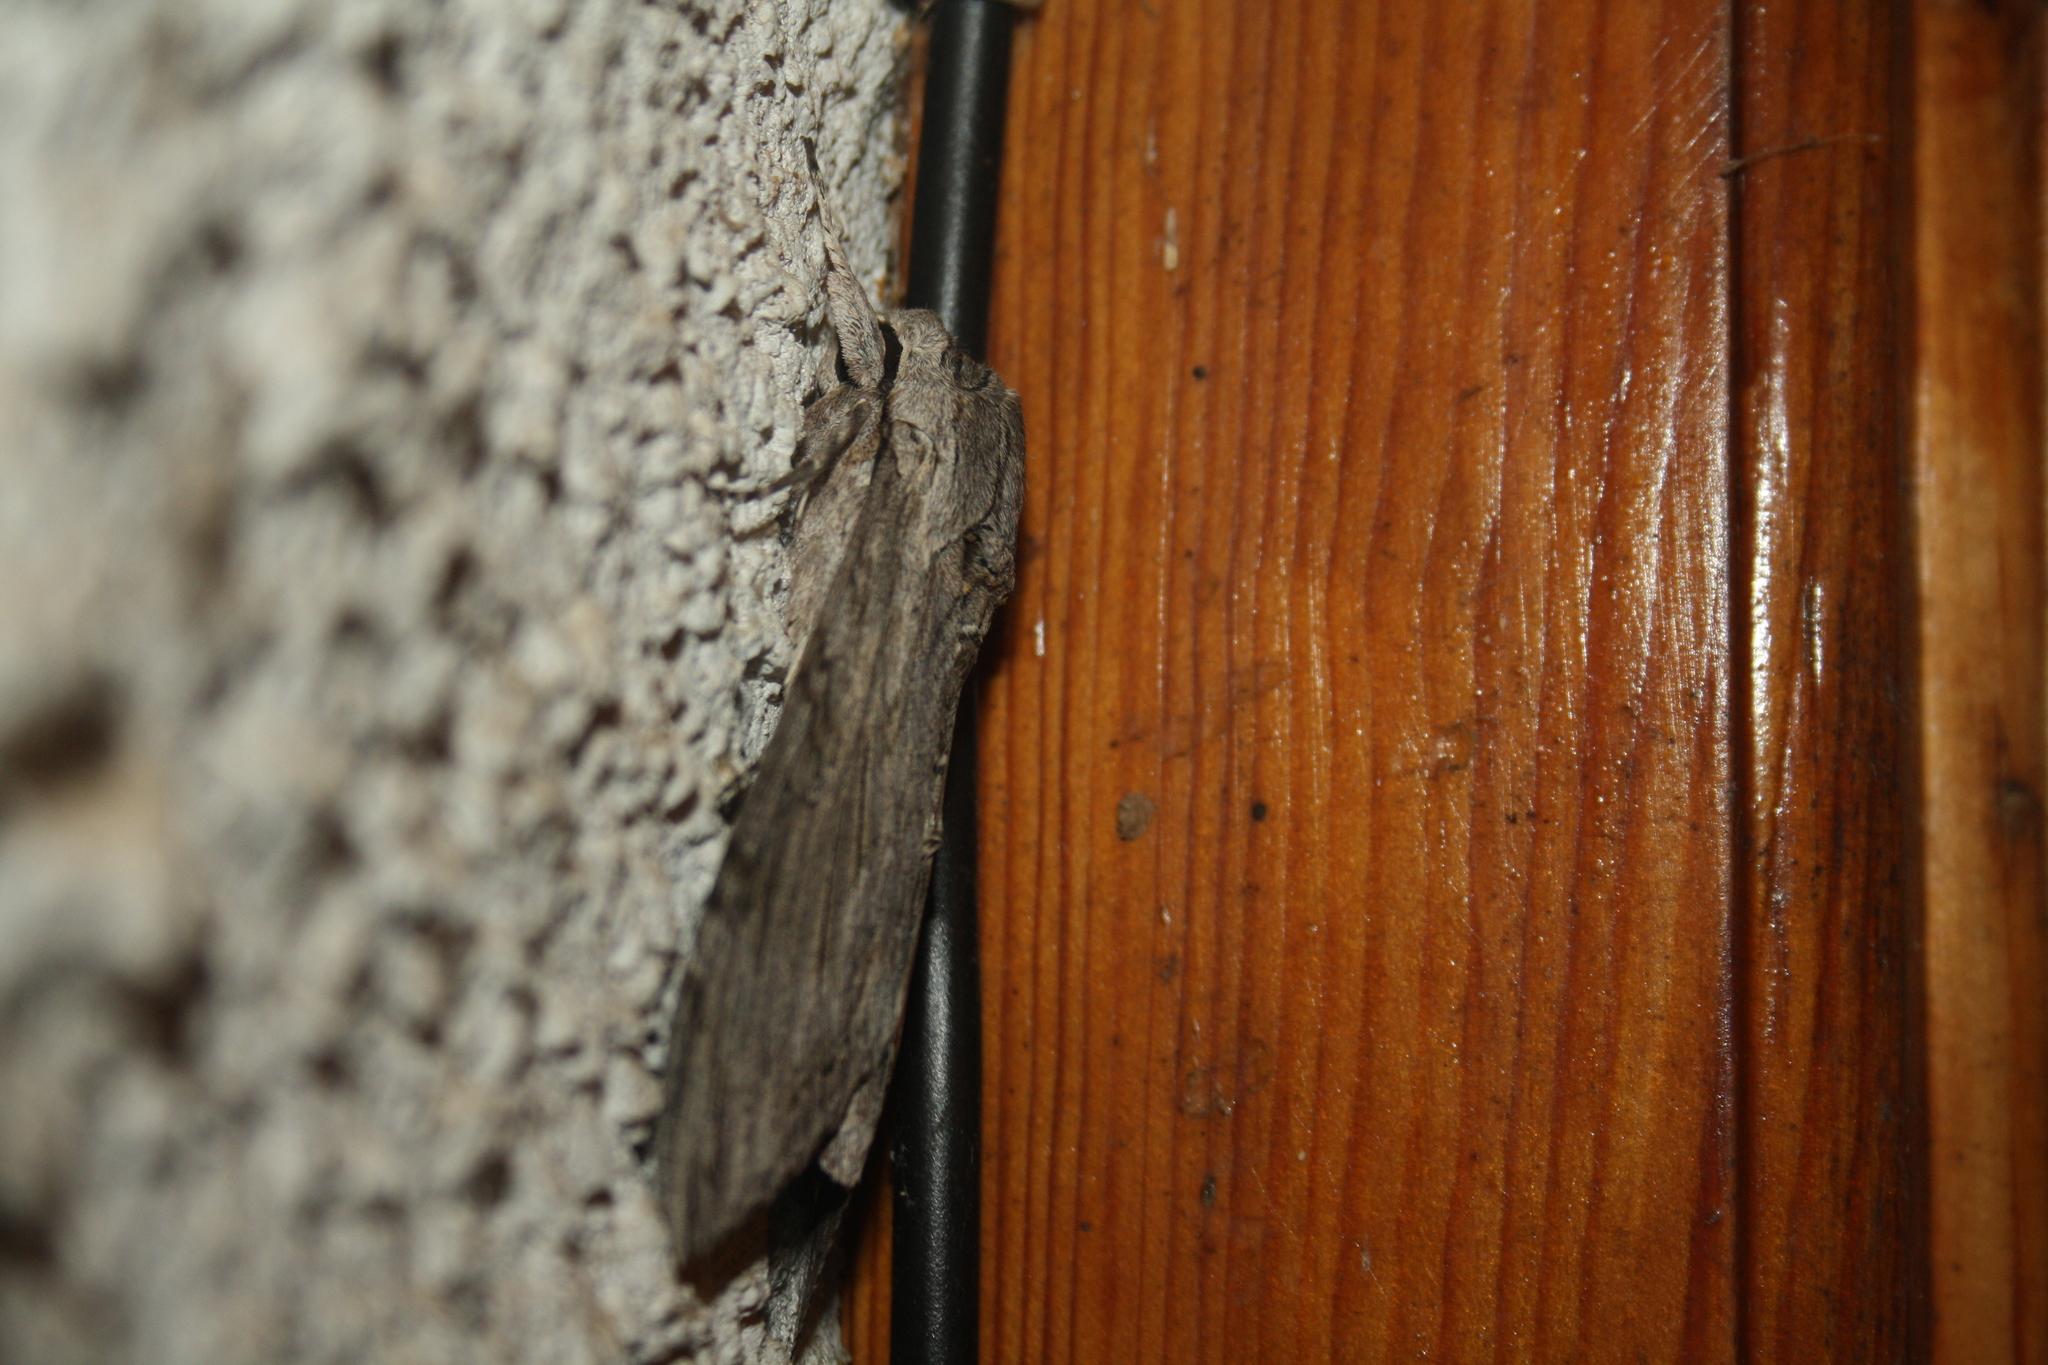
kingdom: Animalia
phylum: Arthropoda
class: Insecta
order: Lepidoptera
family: Sphingidae
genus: Agrius
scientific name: Agrius convolvuli
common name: Convolvulus hawkmoth
